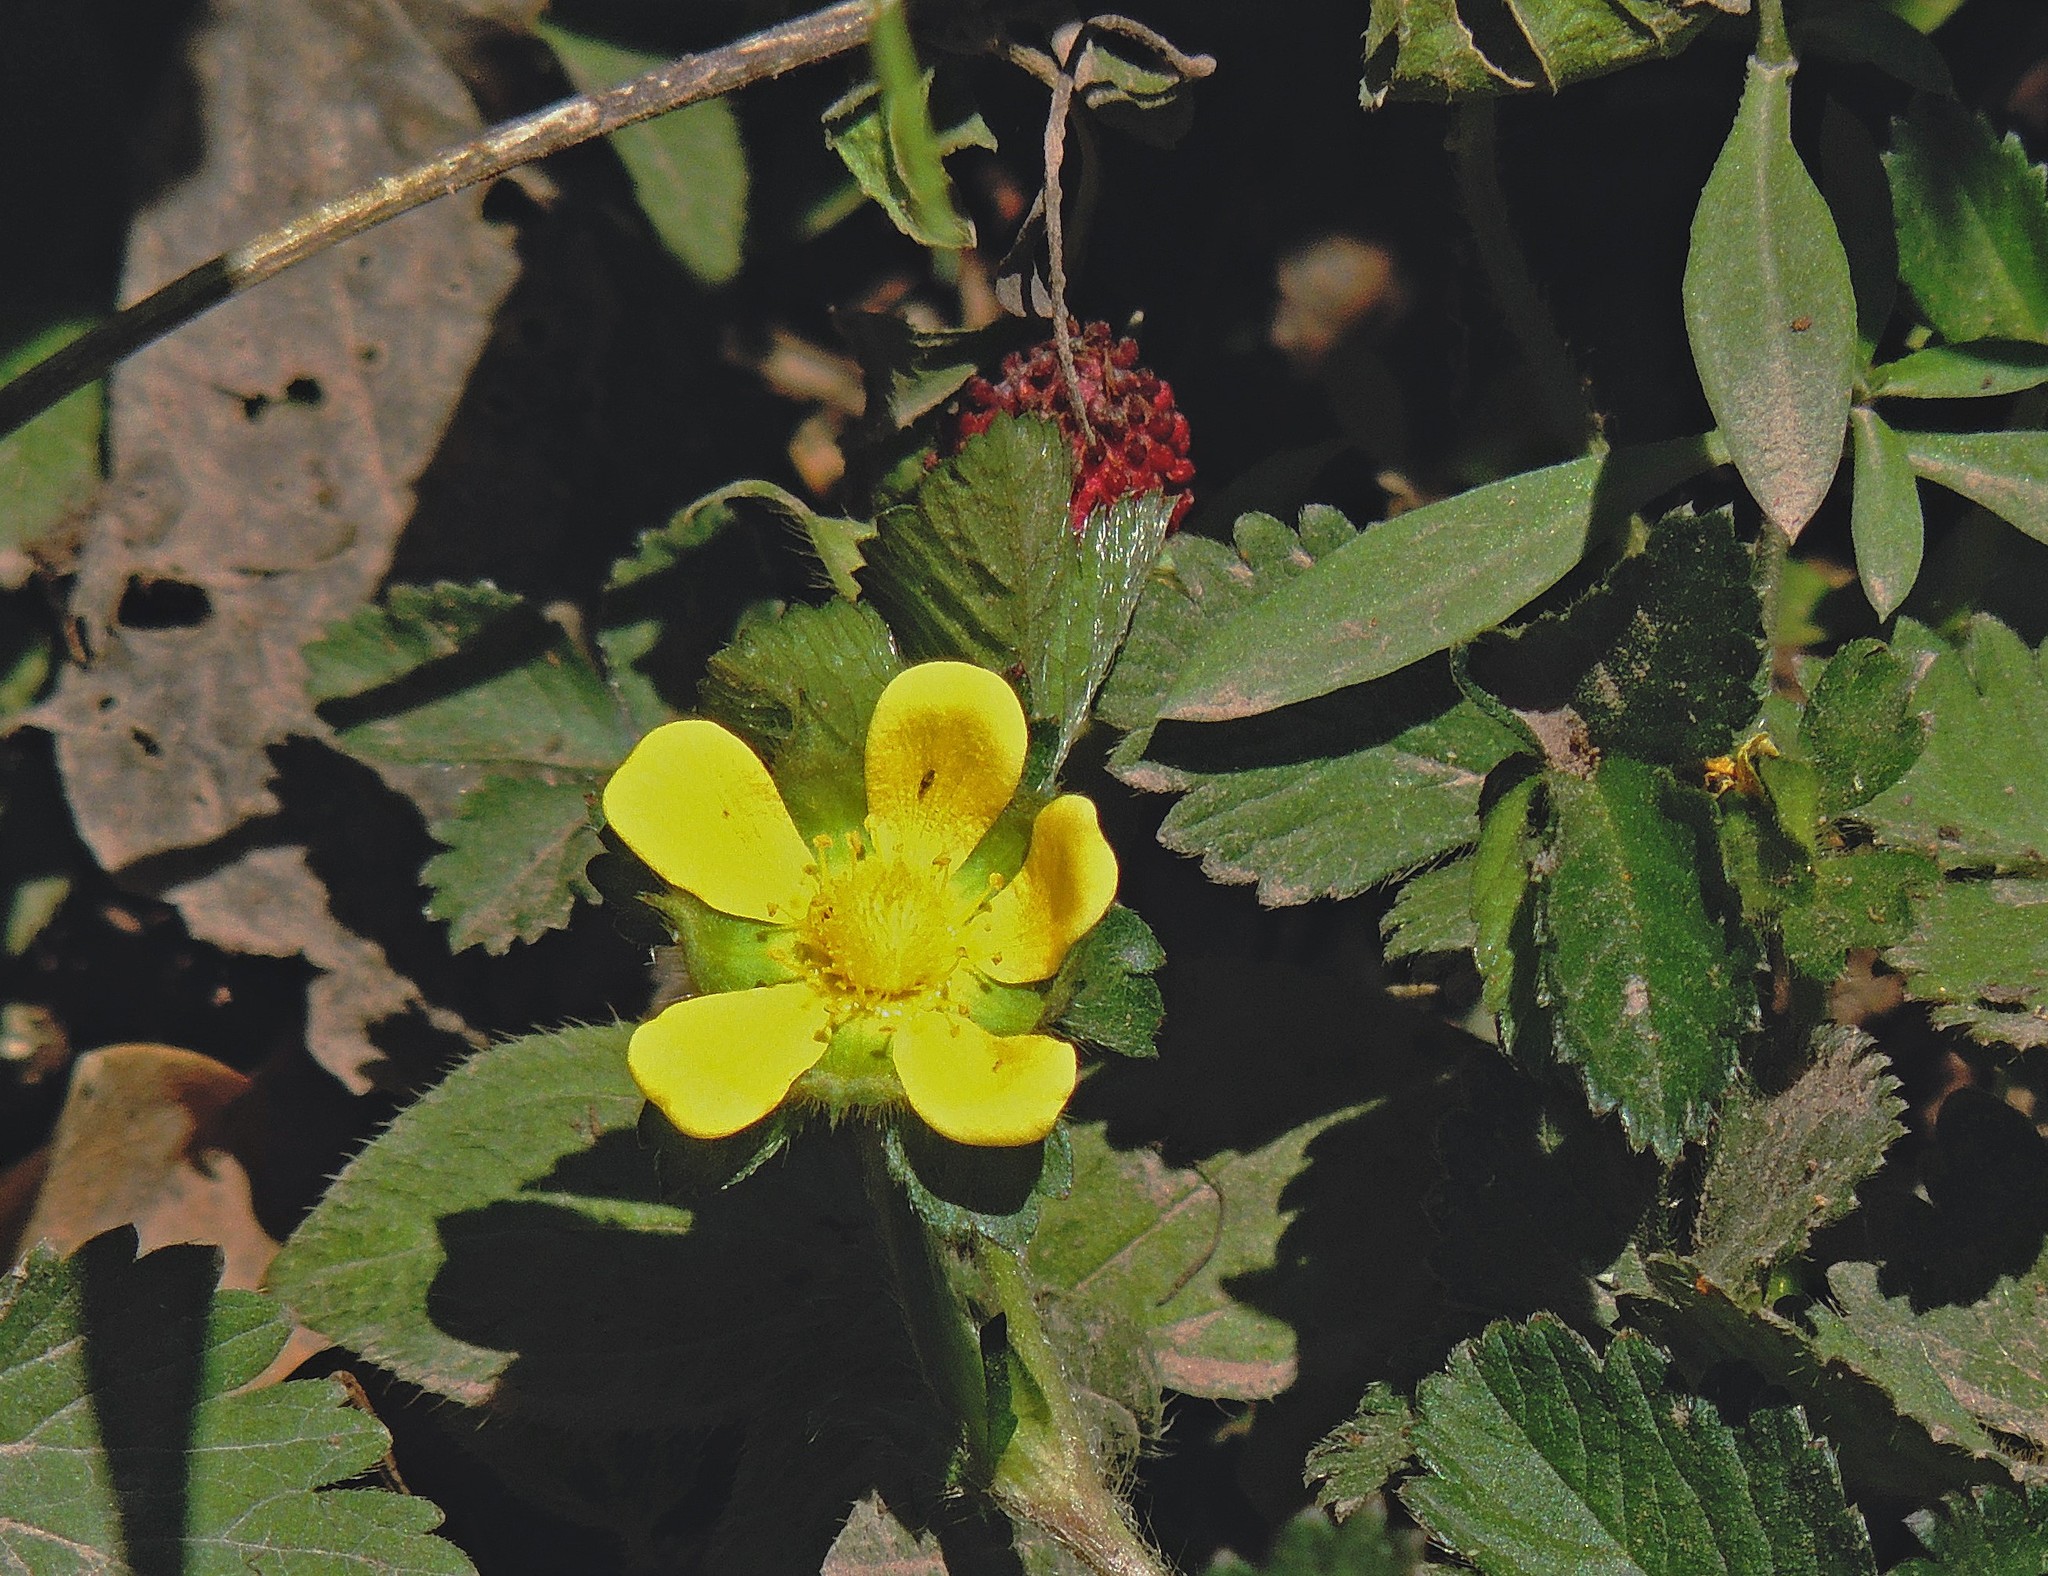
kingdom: Plantae
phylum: Tracheophyta
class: Magnoliopsida
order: Rosales
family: Rosaceae
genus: Potentilla
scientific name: Potentilla indica
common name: Yellow-flowered strawberry
